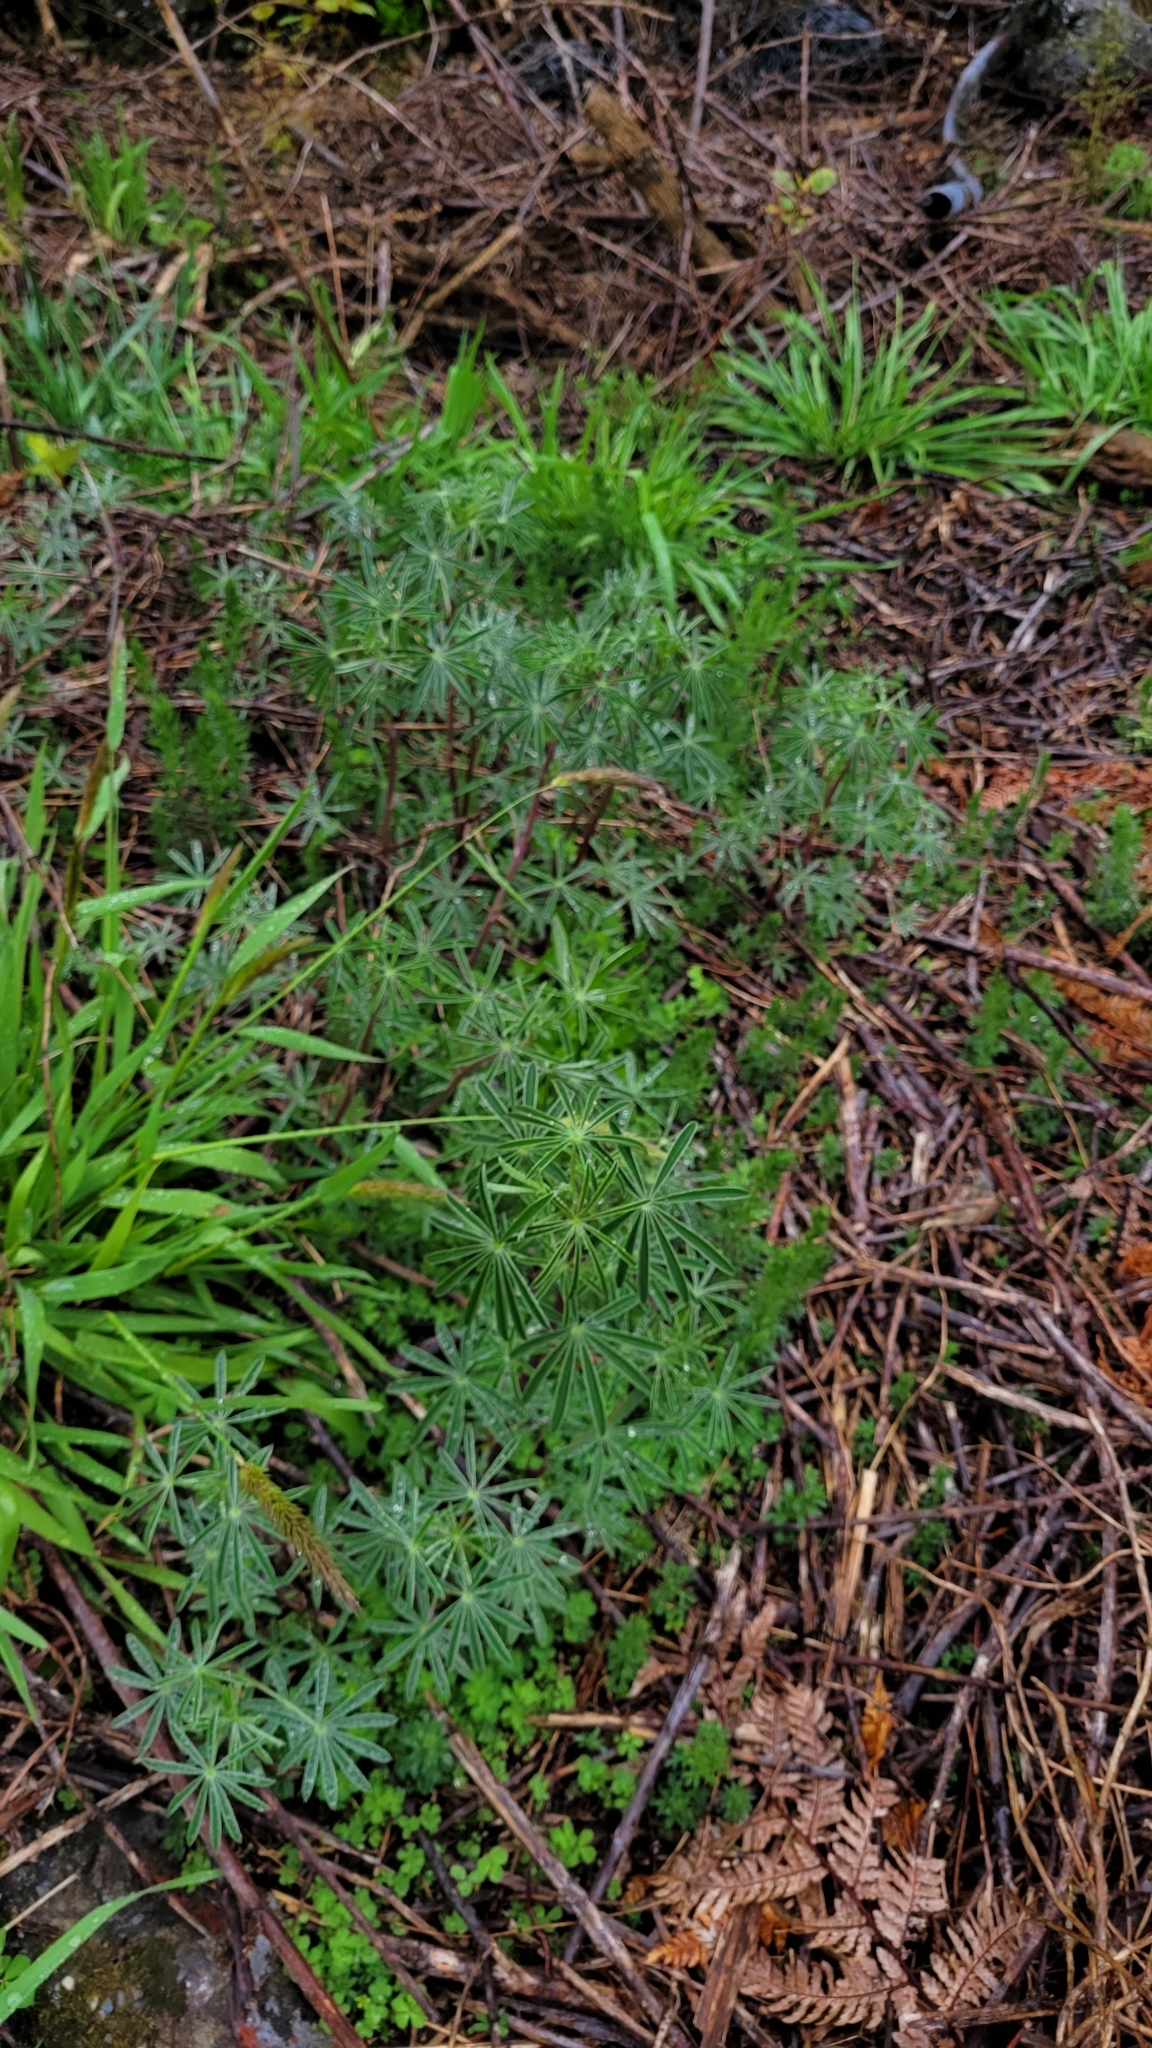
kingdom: Plantae
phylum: Tracheophyta
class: Magnoliopsida
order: Fabales
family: Fabaceae
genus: Lupinus
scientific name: Lupinus arboreus
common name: Yellow bush lupine
